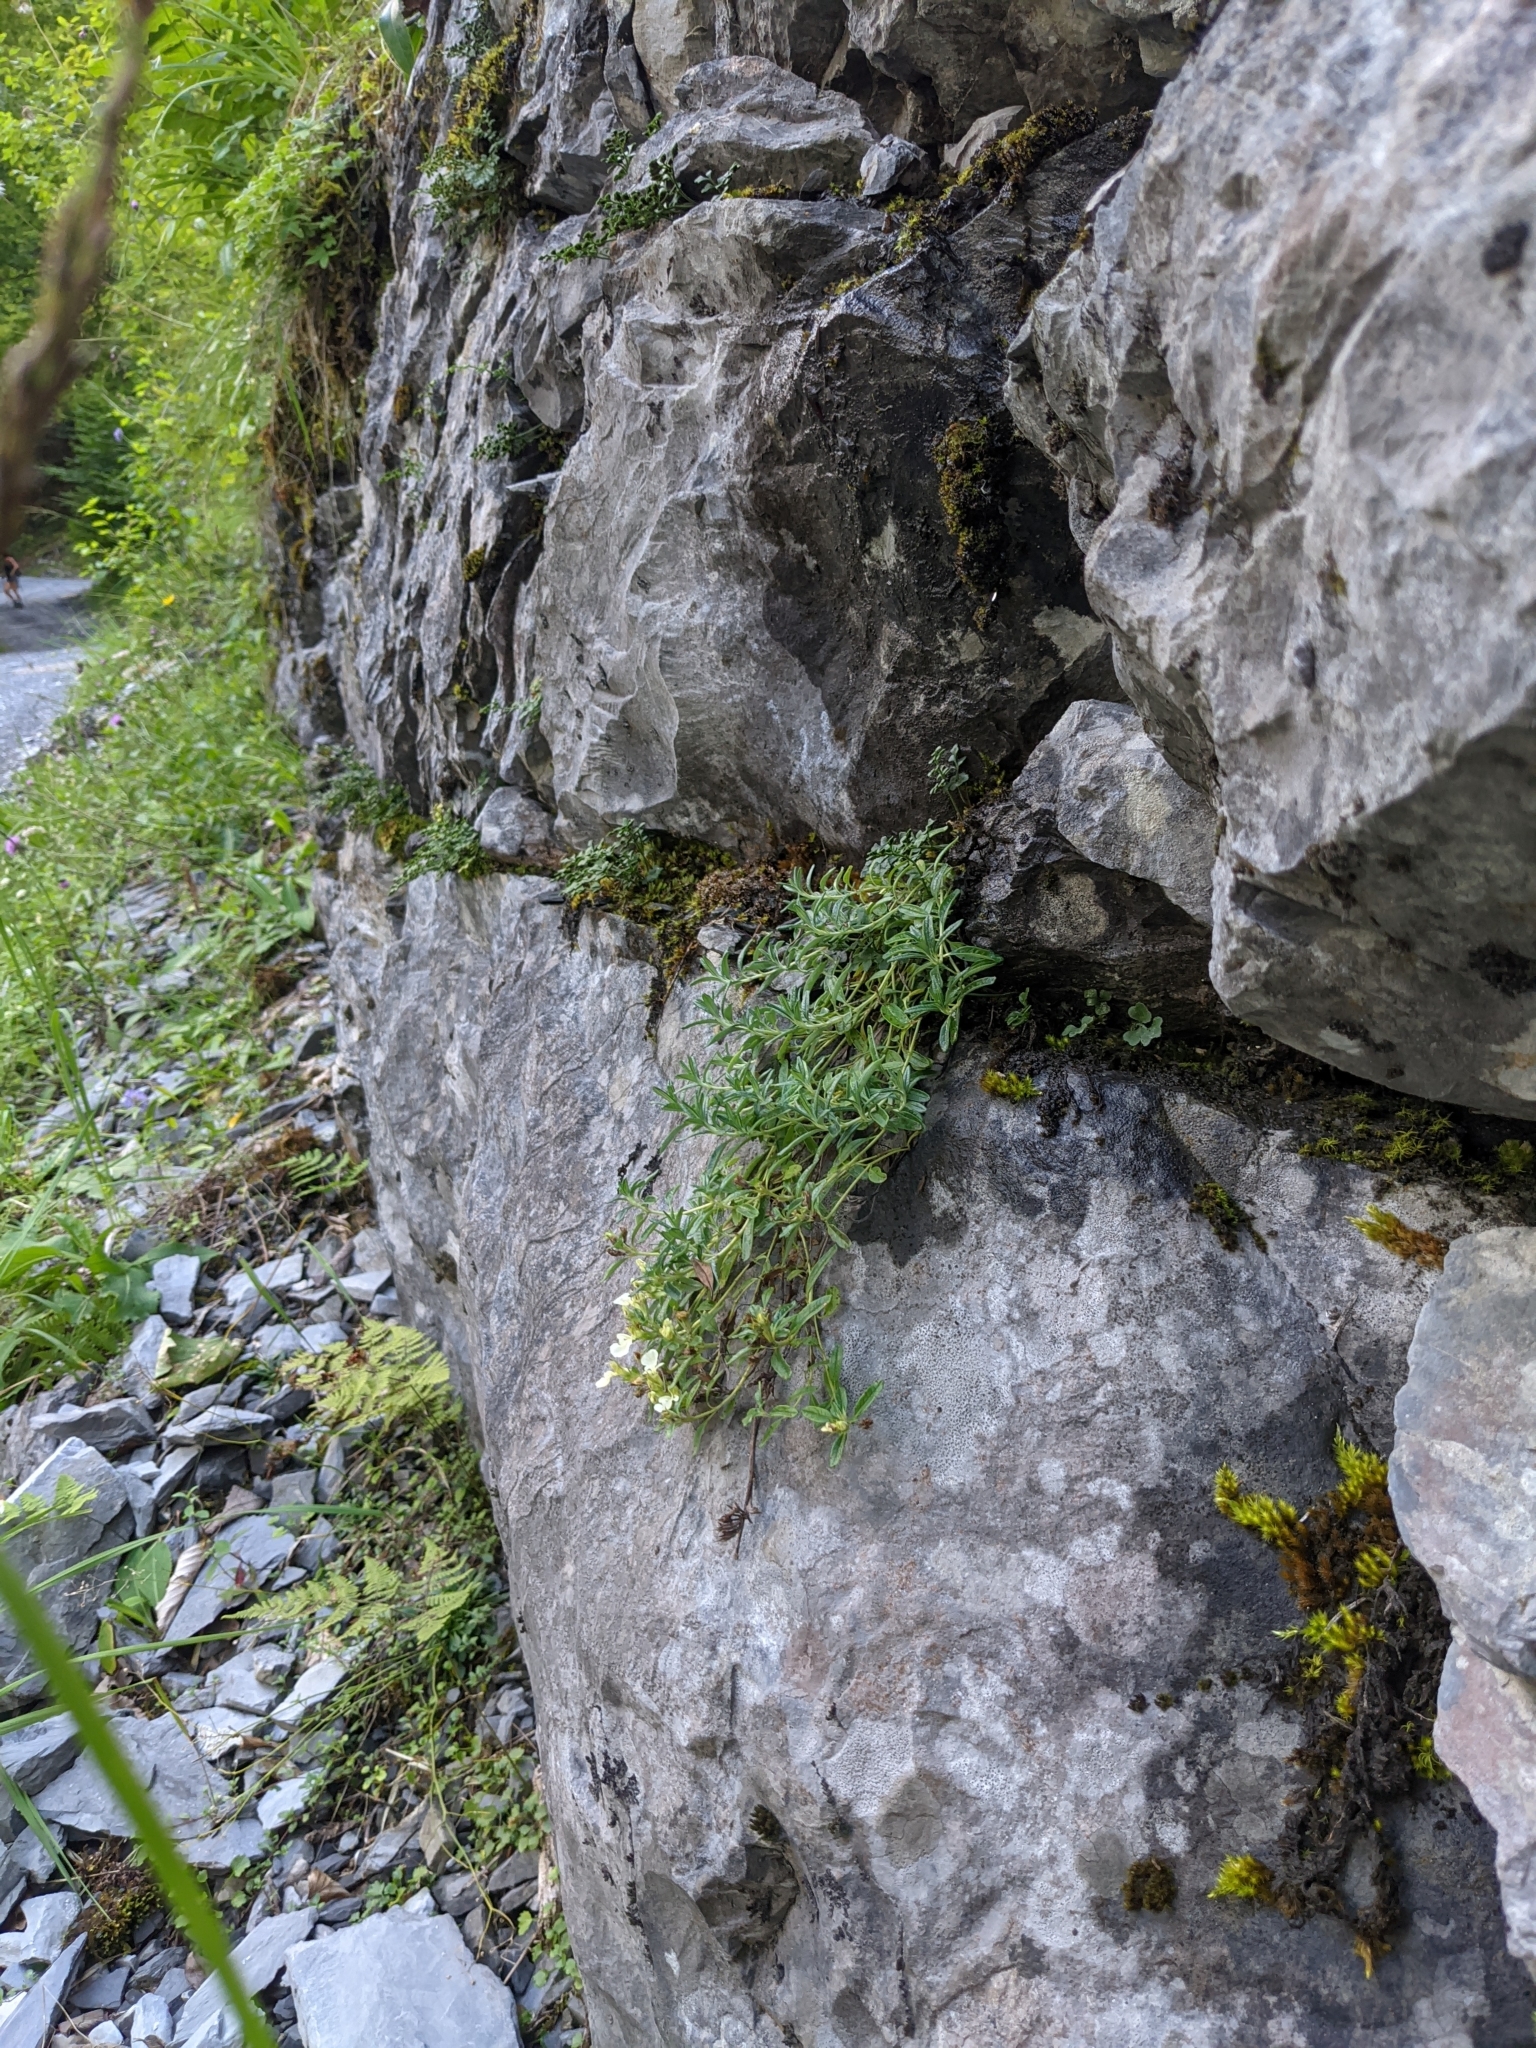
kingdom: Plantae
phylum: Tracheophyta
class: Magnoliopsida
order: Lamiales
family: Lamiaceae
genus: Teucrium
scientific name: Teucrium montanum
